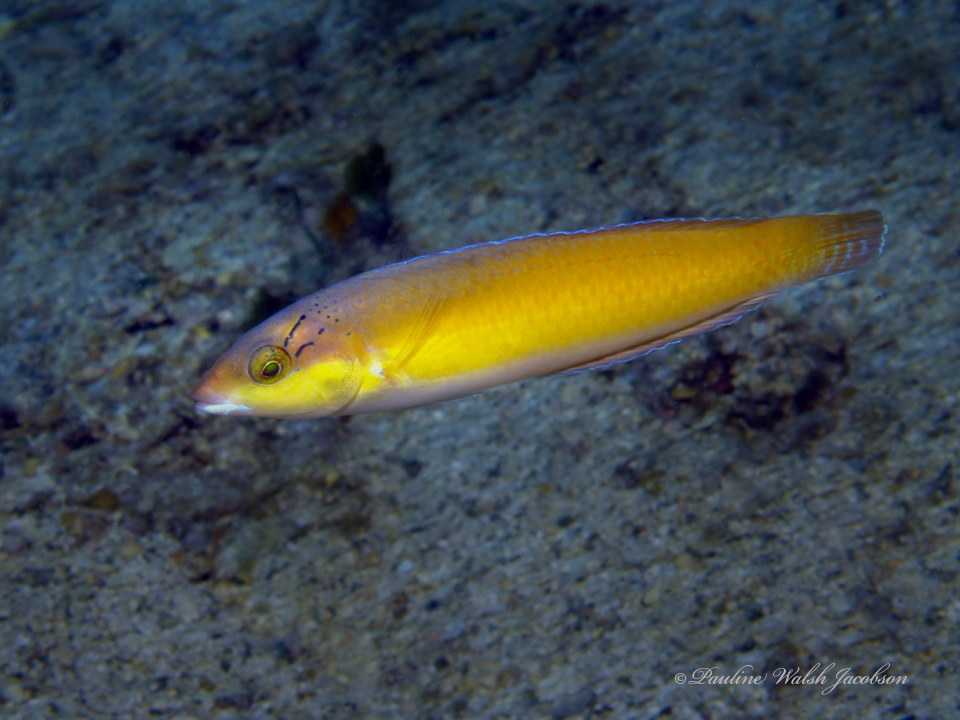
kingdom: Animalia
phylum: Chordata
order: Perciformes
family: Labridae
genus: Halichoeres
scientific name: Halichoeres garnoti
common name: Yellowhead wrasse
